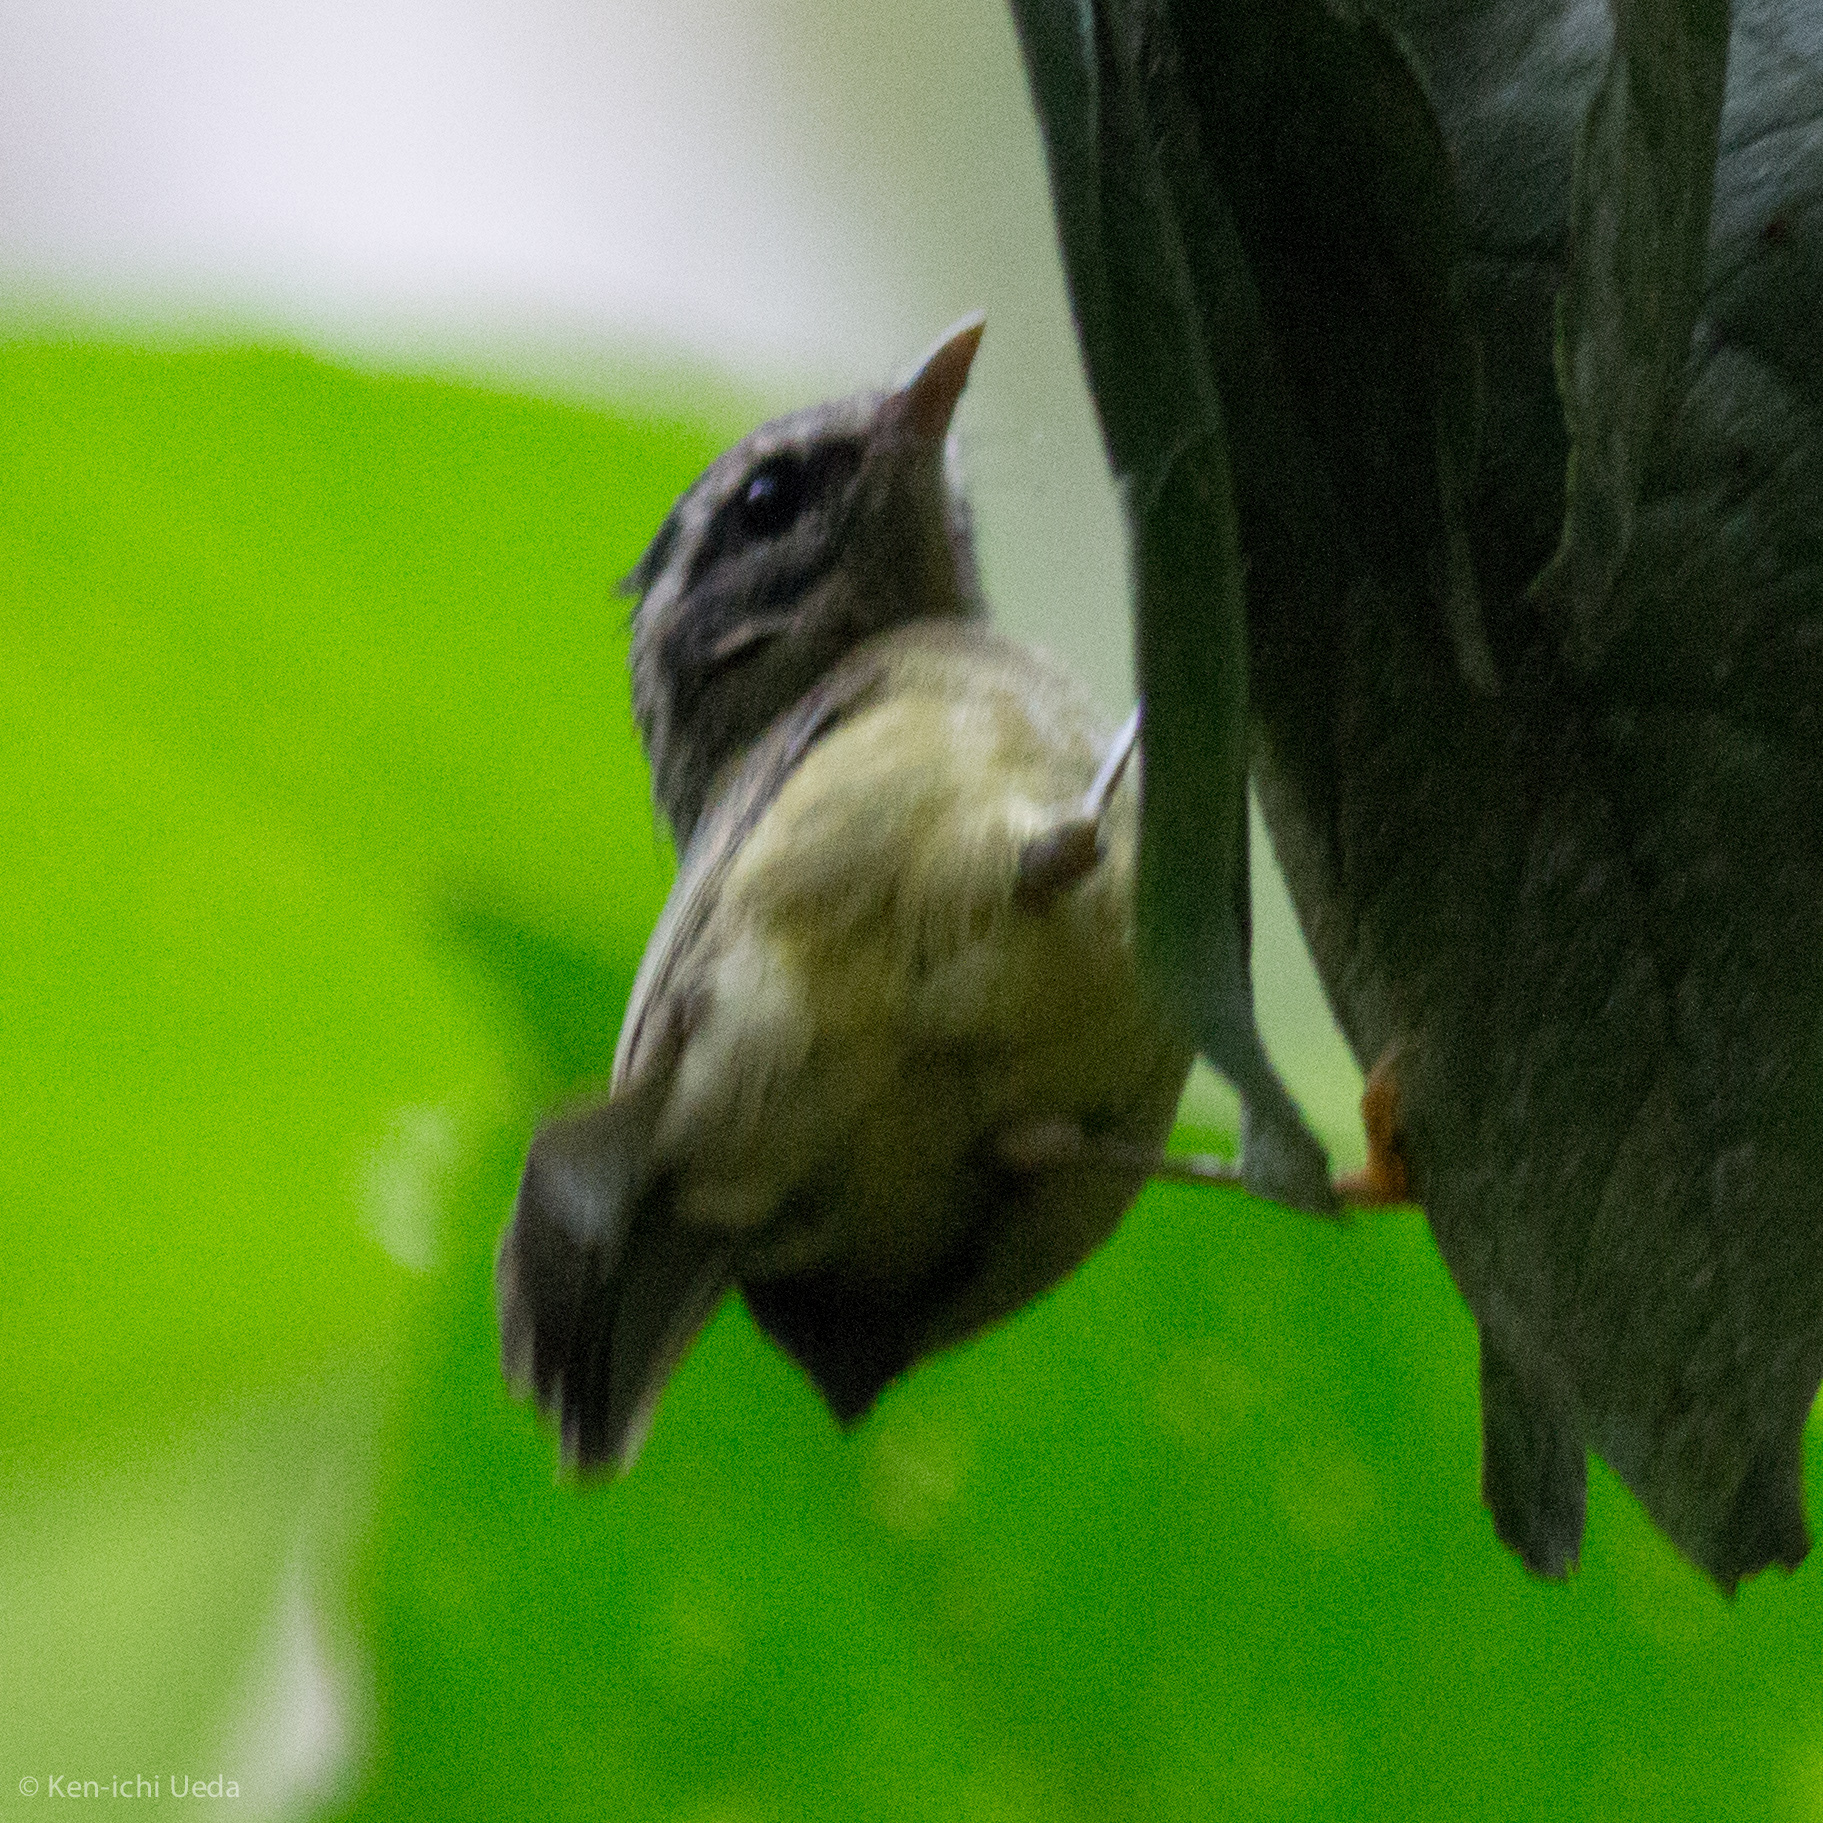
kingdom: Animalia
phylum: Chordata
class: Aves
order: Passeriformes
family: Parulidae
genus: Basileuterus
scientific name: Basileuterus tristriatus
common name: Three-striped warbler
